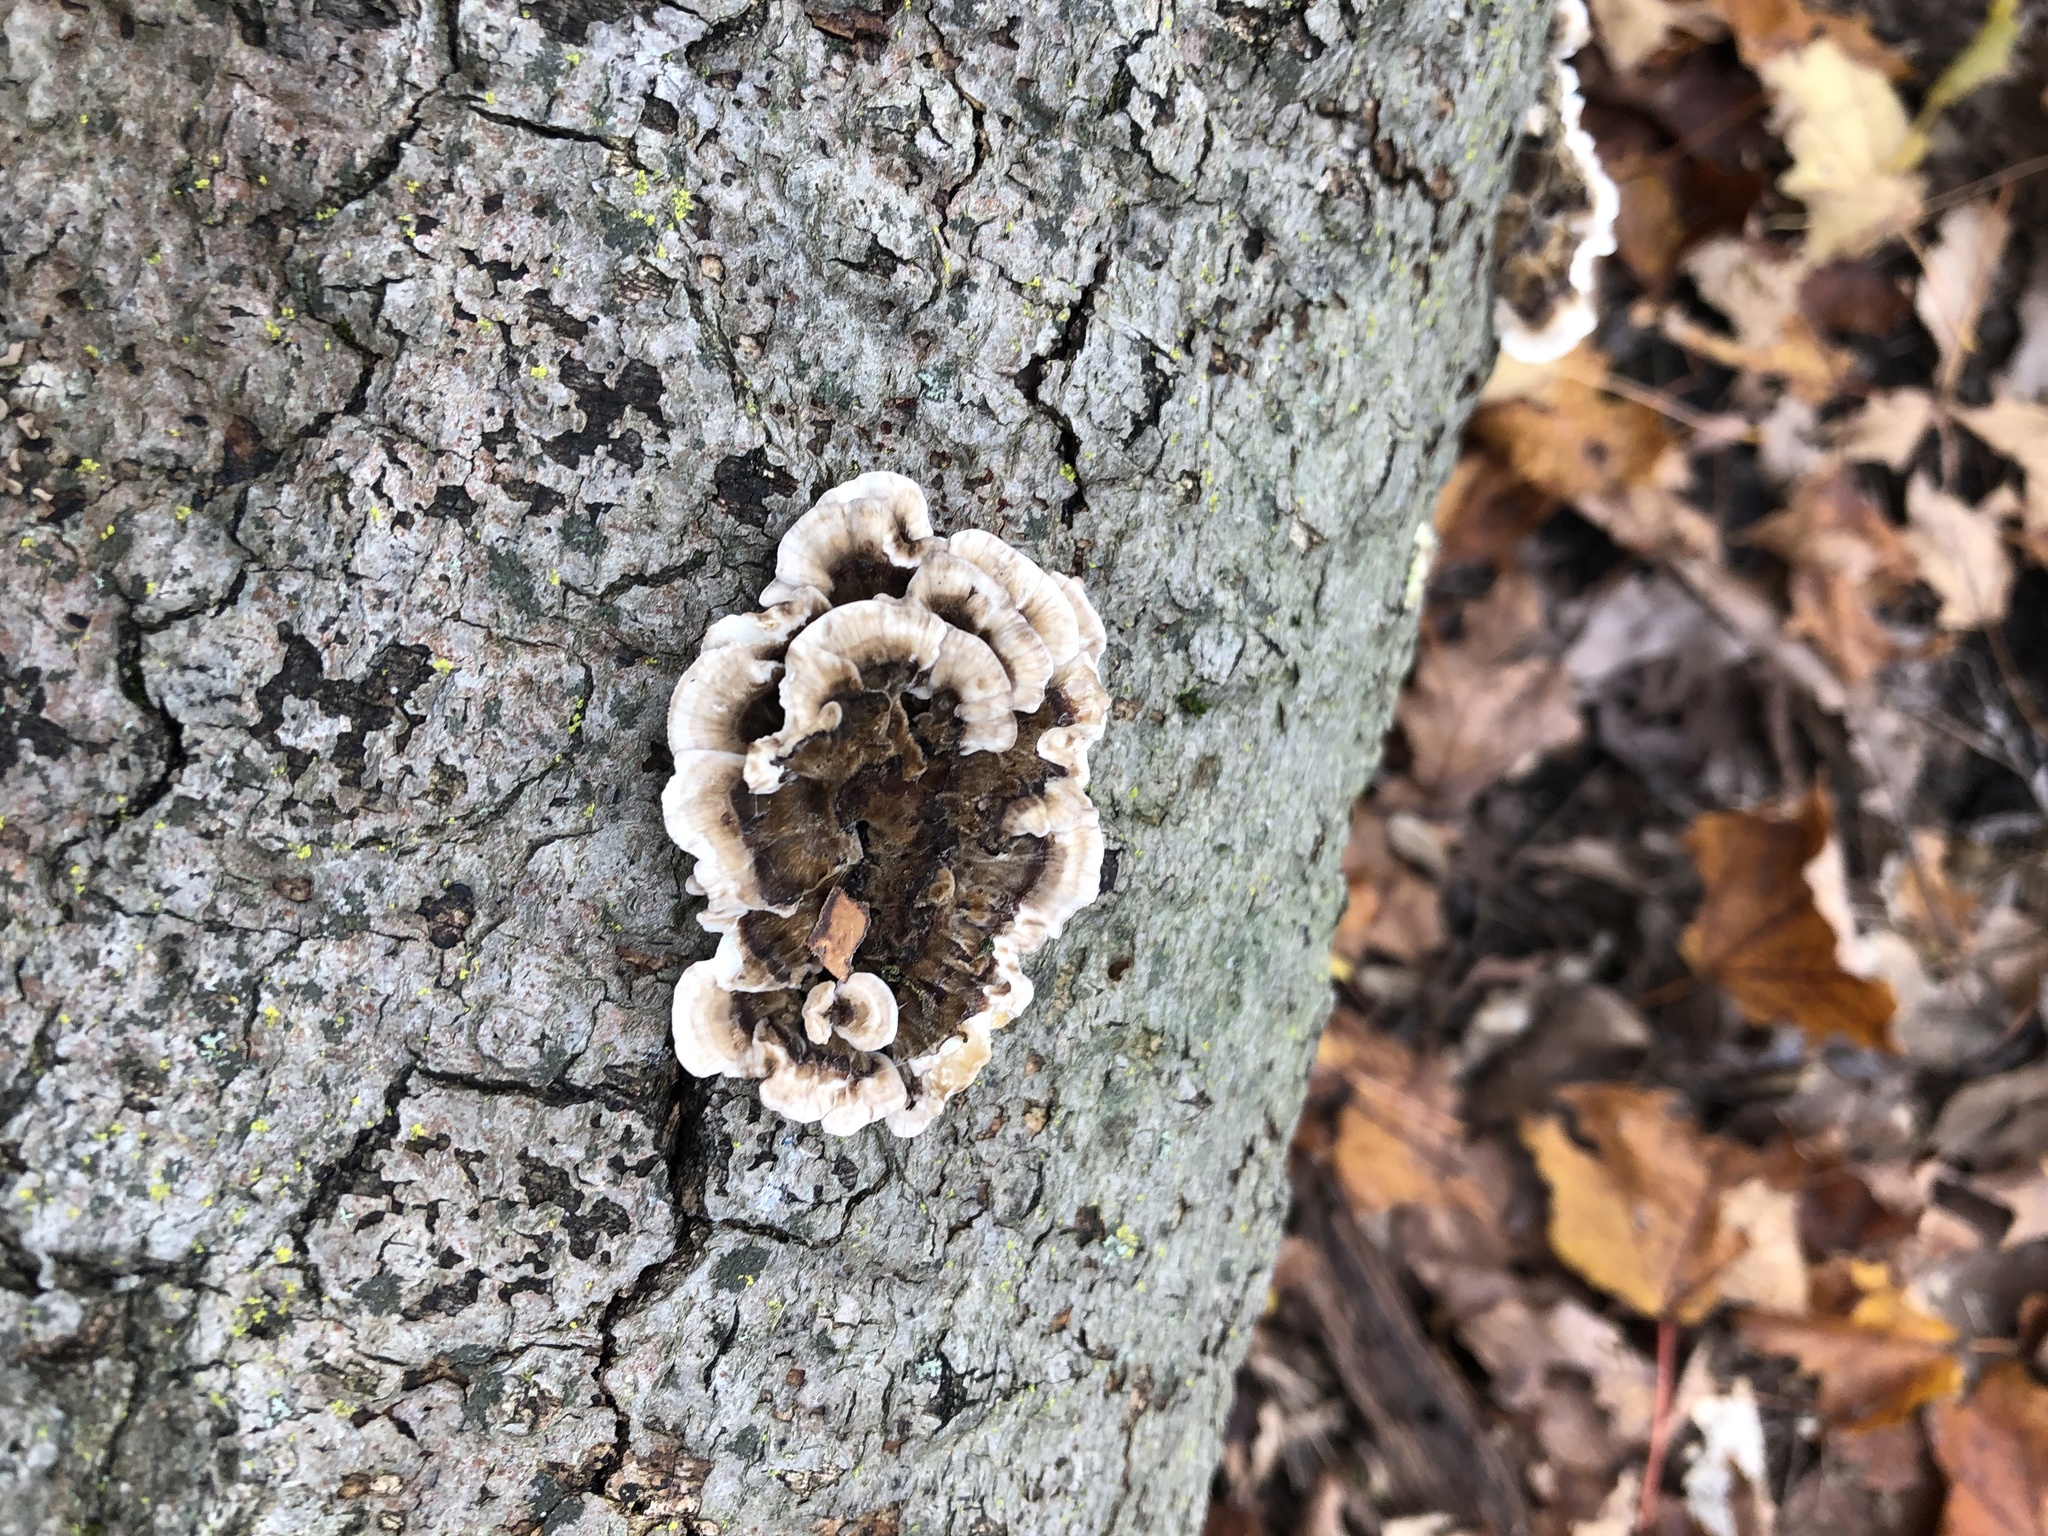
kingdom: Fungi
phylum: Basidiomycota
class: Agaricomycetes
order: Polyporales
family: Polyporaceae
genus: Trametes
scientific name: Trametes versicolor
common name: Turkeytail
